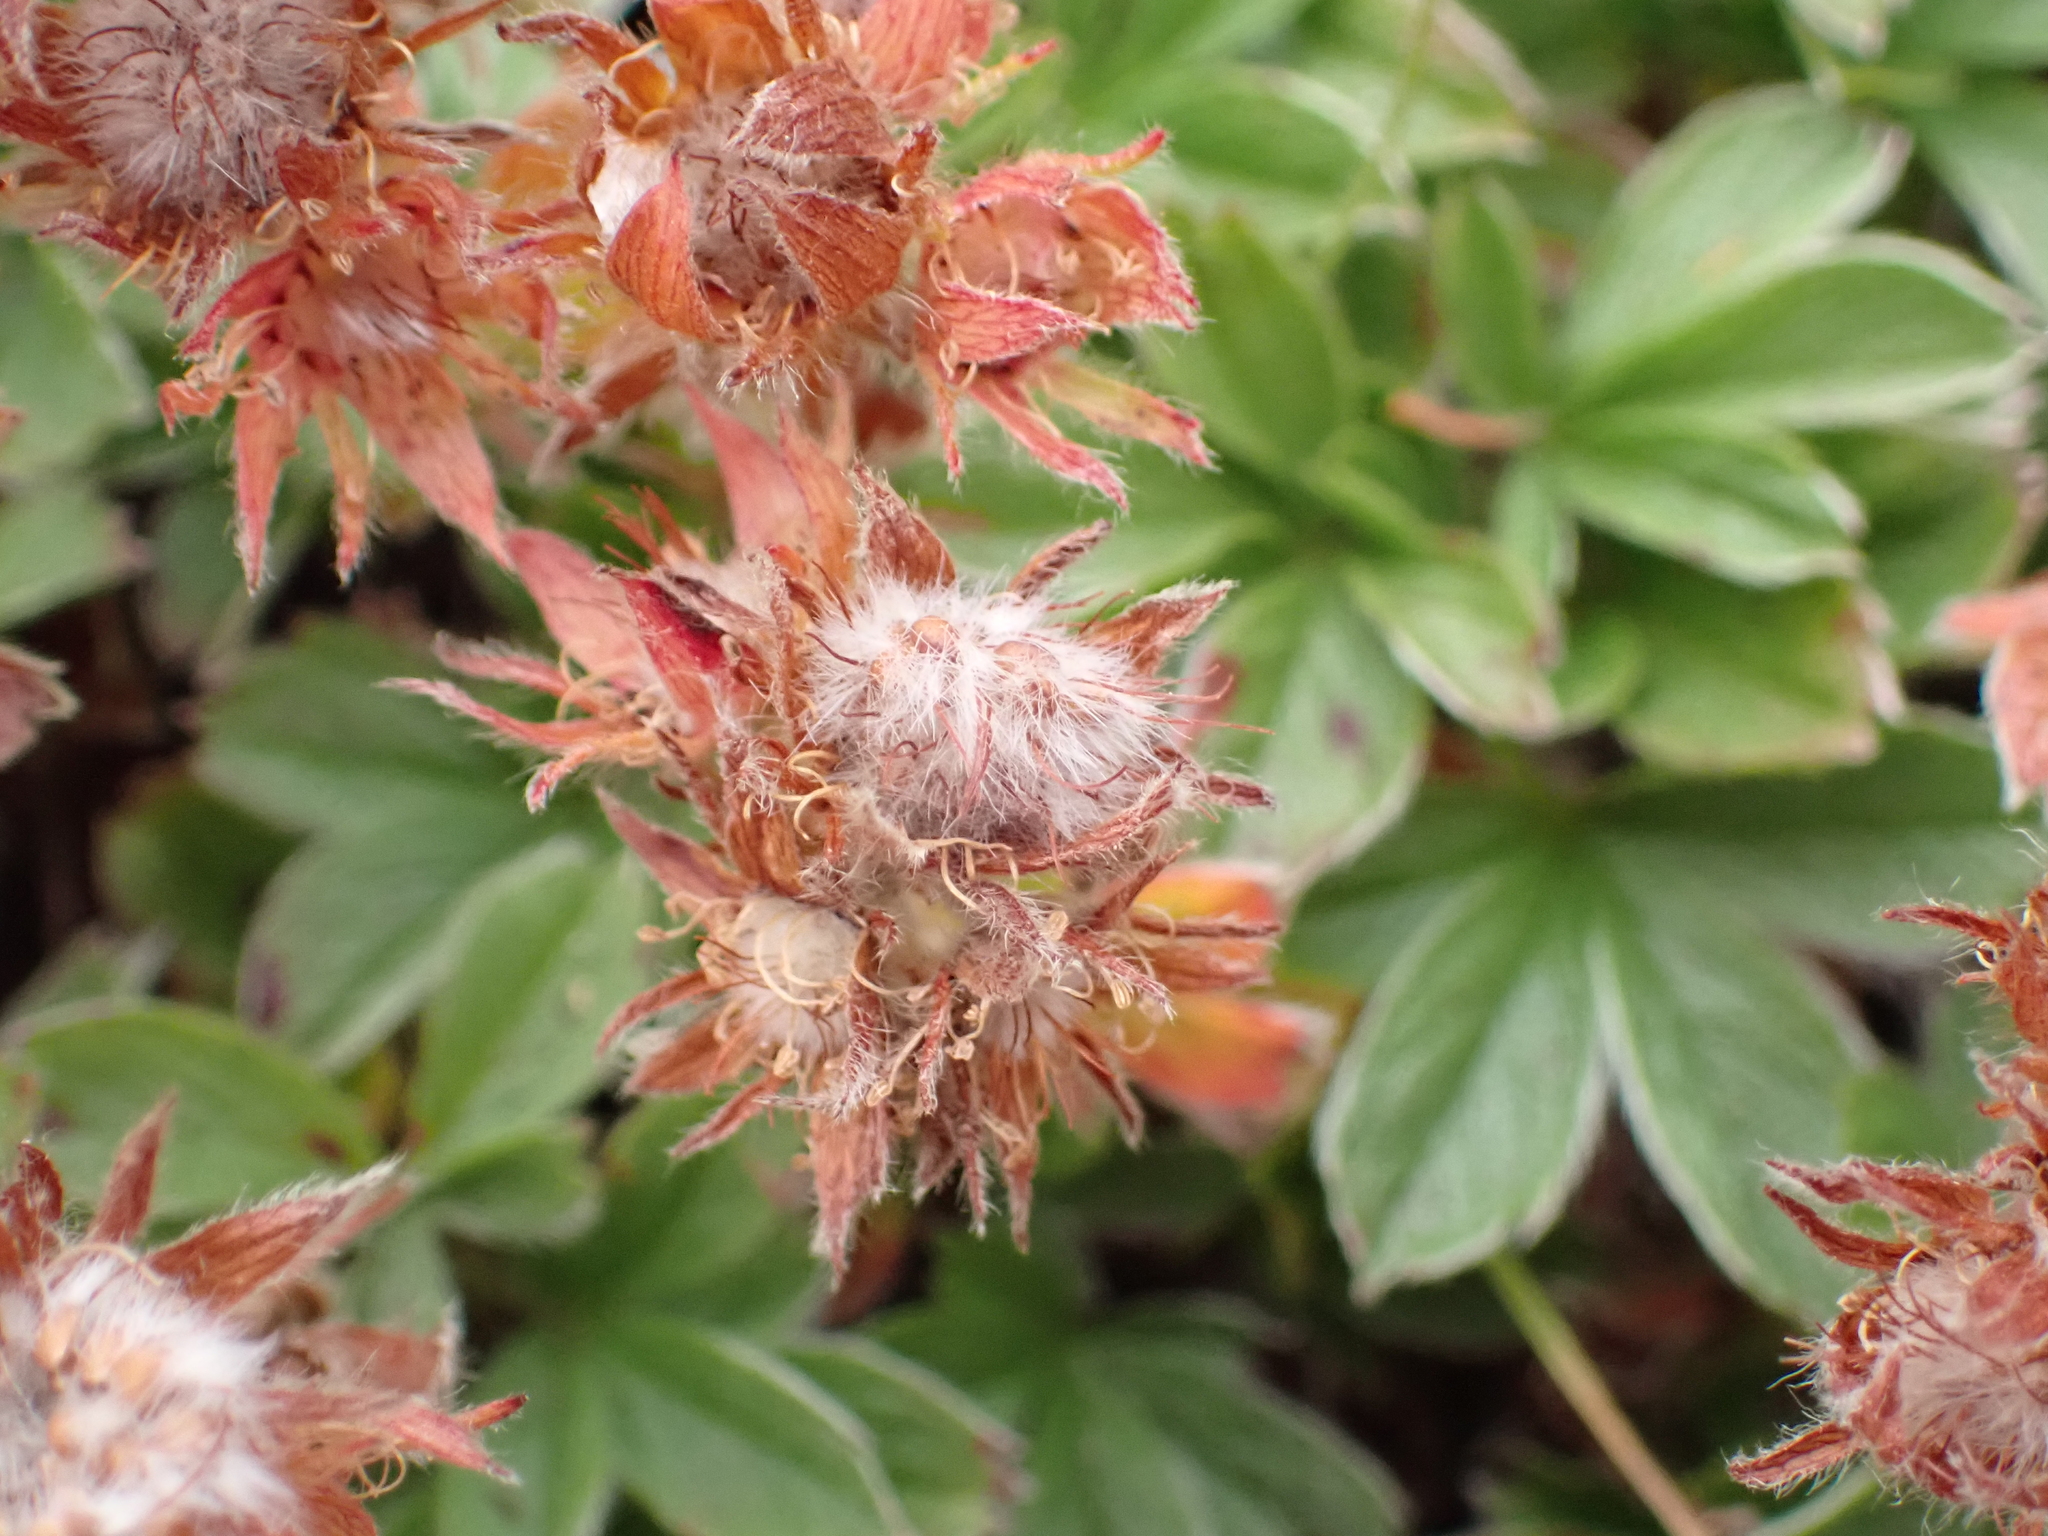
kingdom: Plantae
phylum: Tracheophyta
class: Magnoliopsida
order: Rosales
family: Rosaceae
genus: Potentilla
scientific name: Potentilla clusiana
